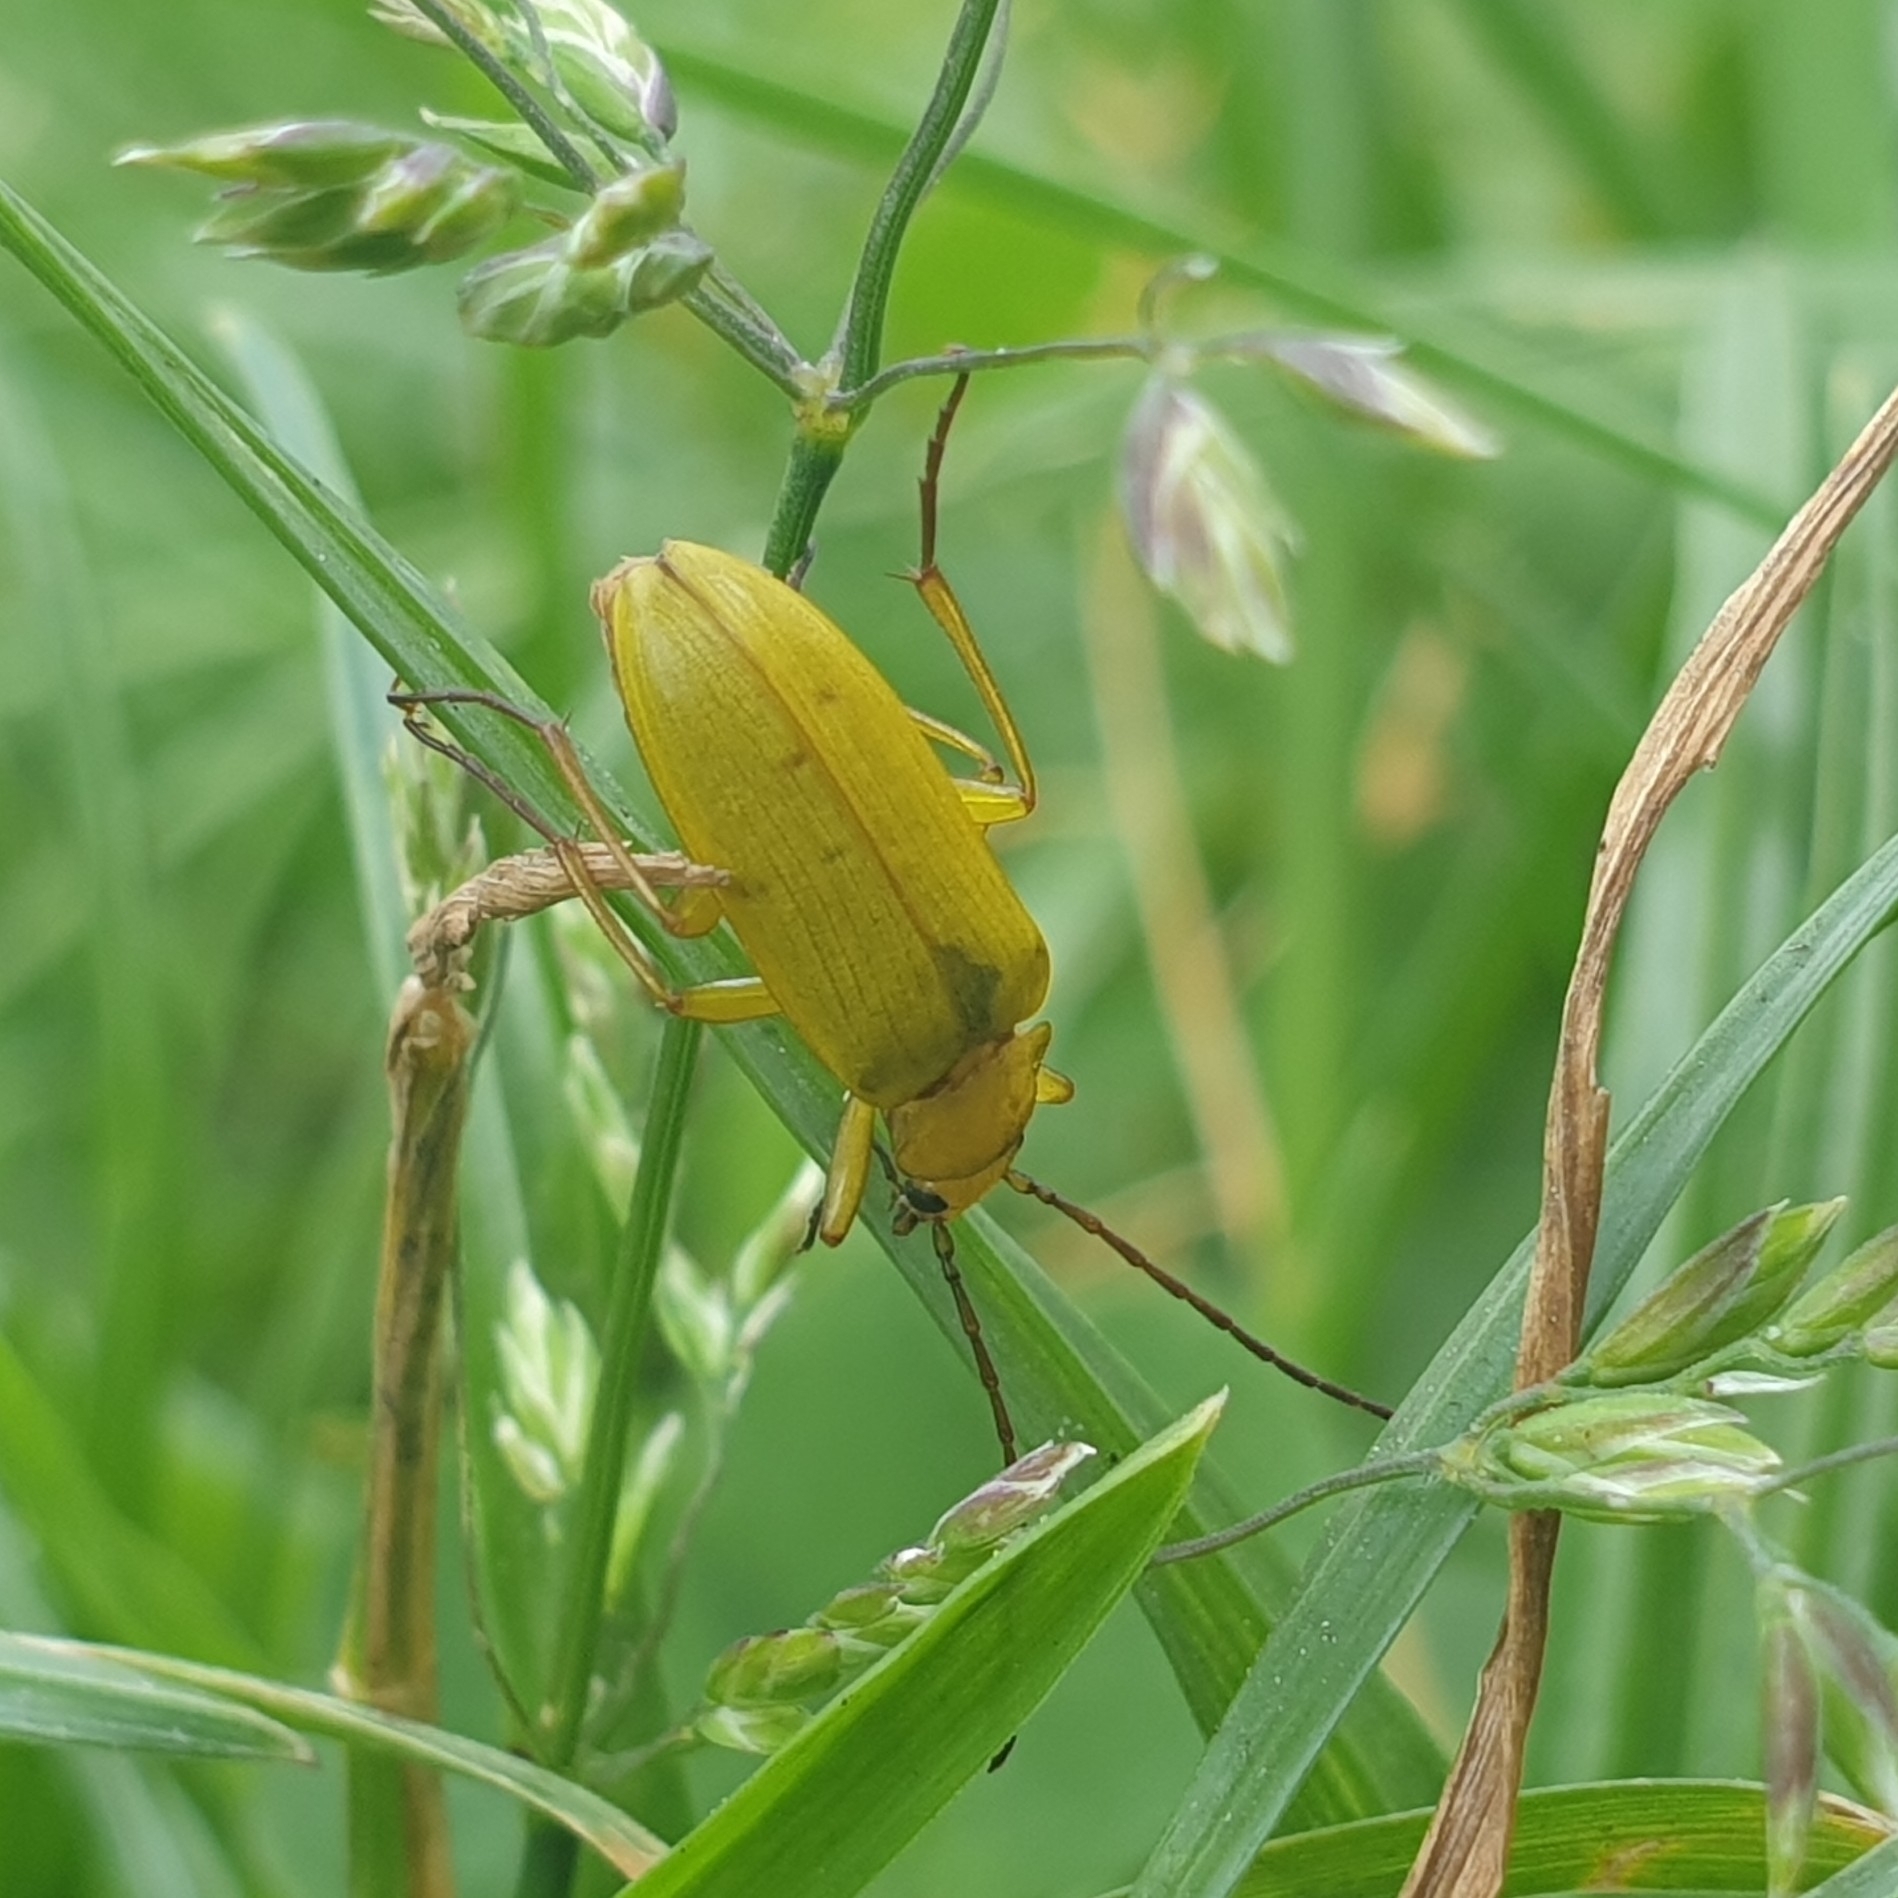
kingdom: Animalia
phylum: Arthropoda
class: Insecta
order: Coleoptera
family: Tenebrionidae
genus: Cteniopus
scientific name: Cteniopus sulphureus
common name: Sulphur beetle
